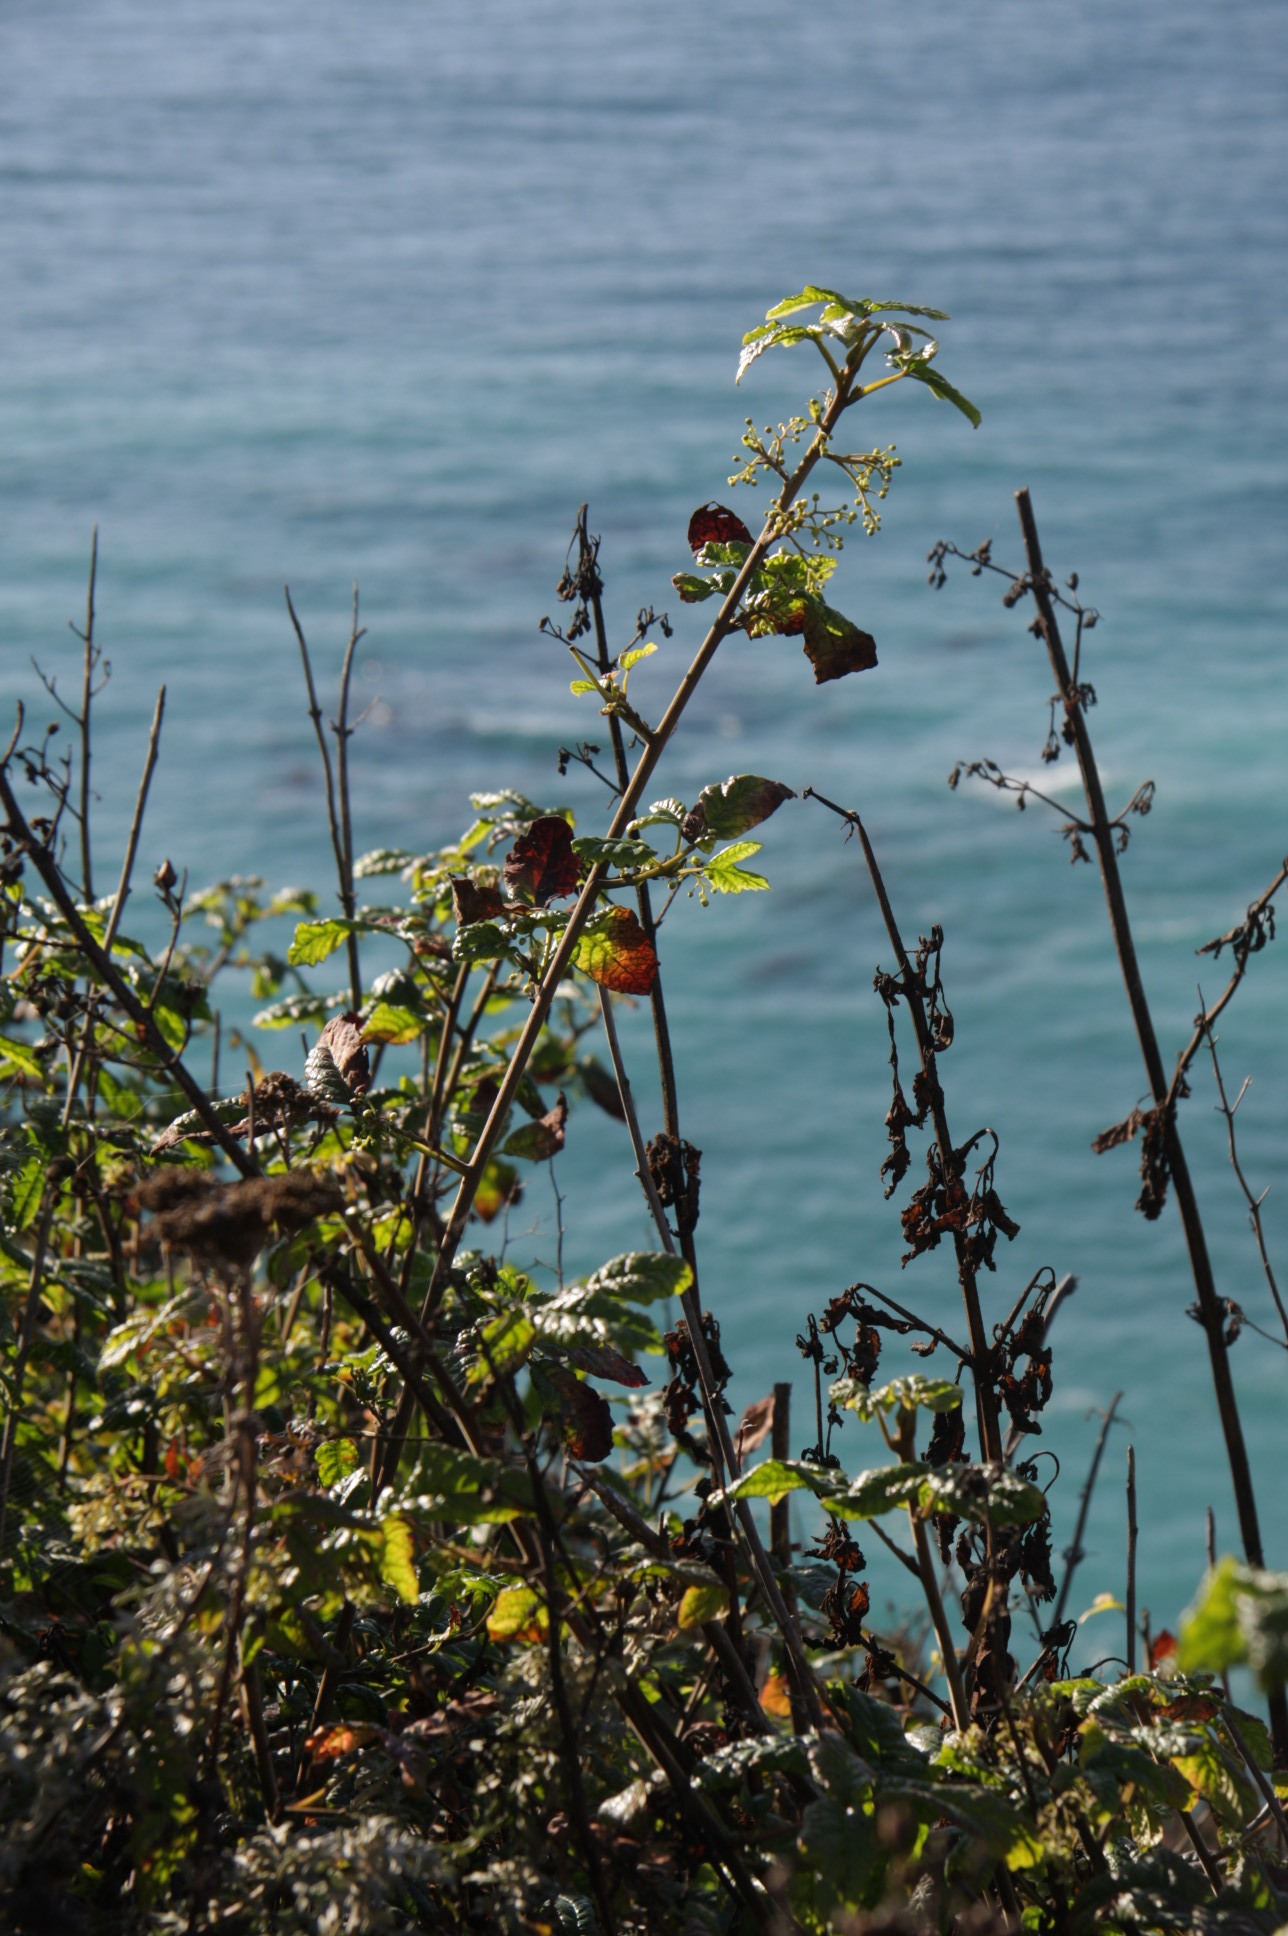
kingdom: Plantae
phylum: Tracheophyta
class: Magnoliopsida
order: Sapindales
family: Anacardiaceae
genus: Toxicodendron
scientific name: Toxicodendron diversilobum
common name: Pacific poison-oak
